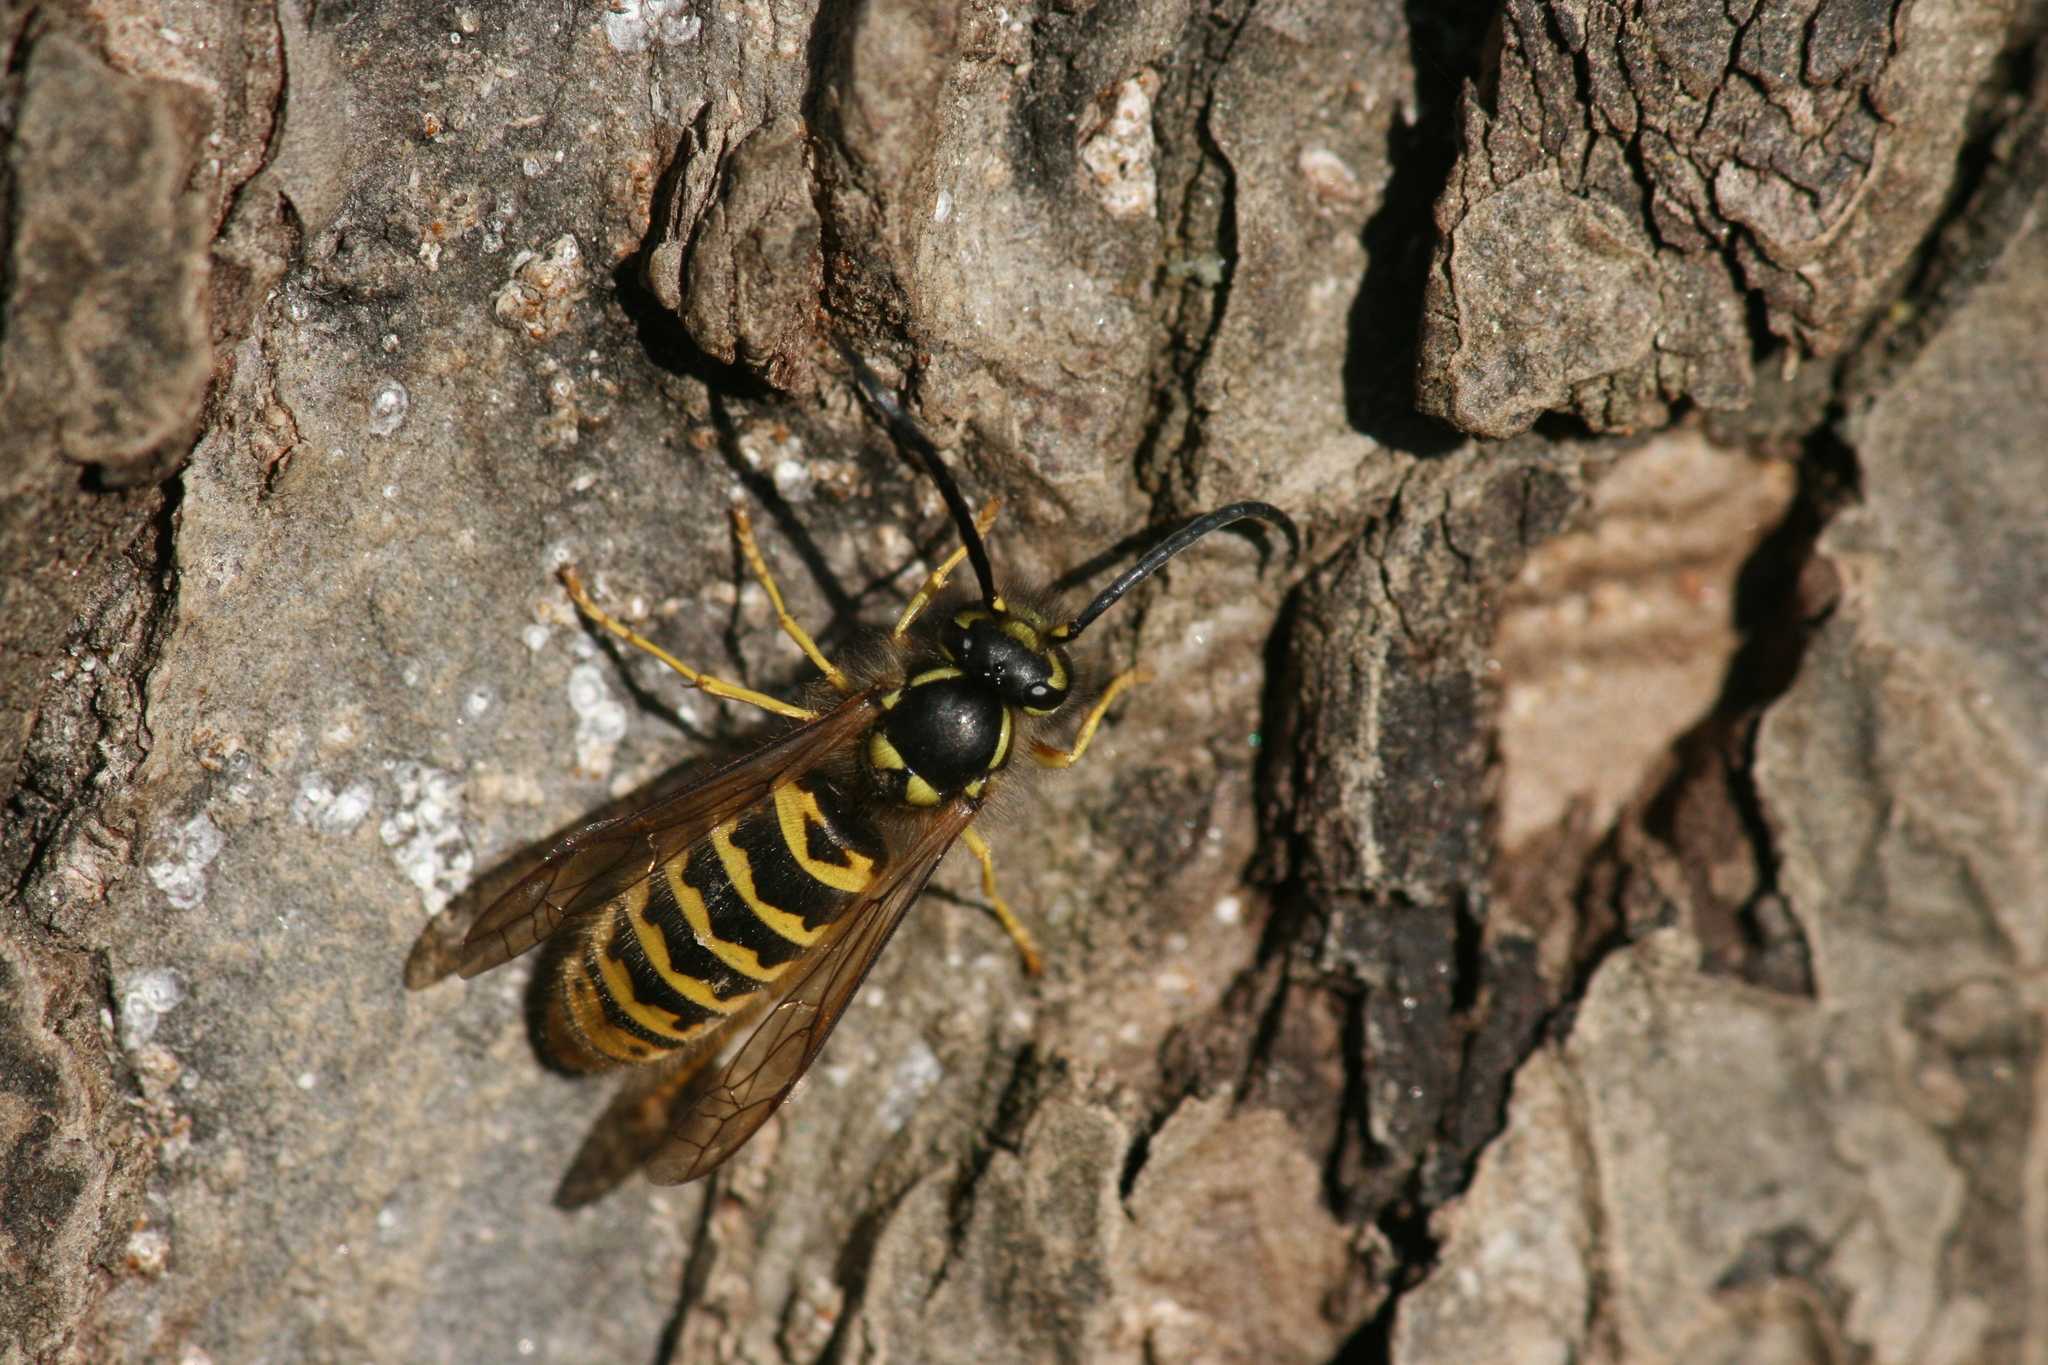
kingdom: Animalia
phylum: Arthropoda
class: Insecta
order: Hymenoptera
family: Vespidae
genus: Vespula
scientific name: Vespula vulgaris
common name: Common wasp
